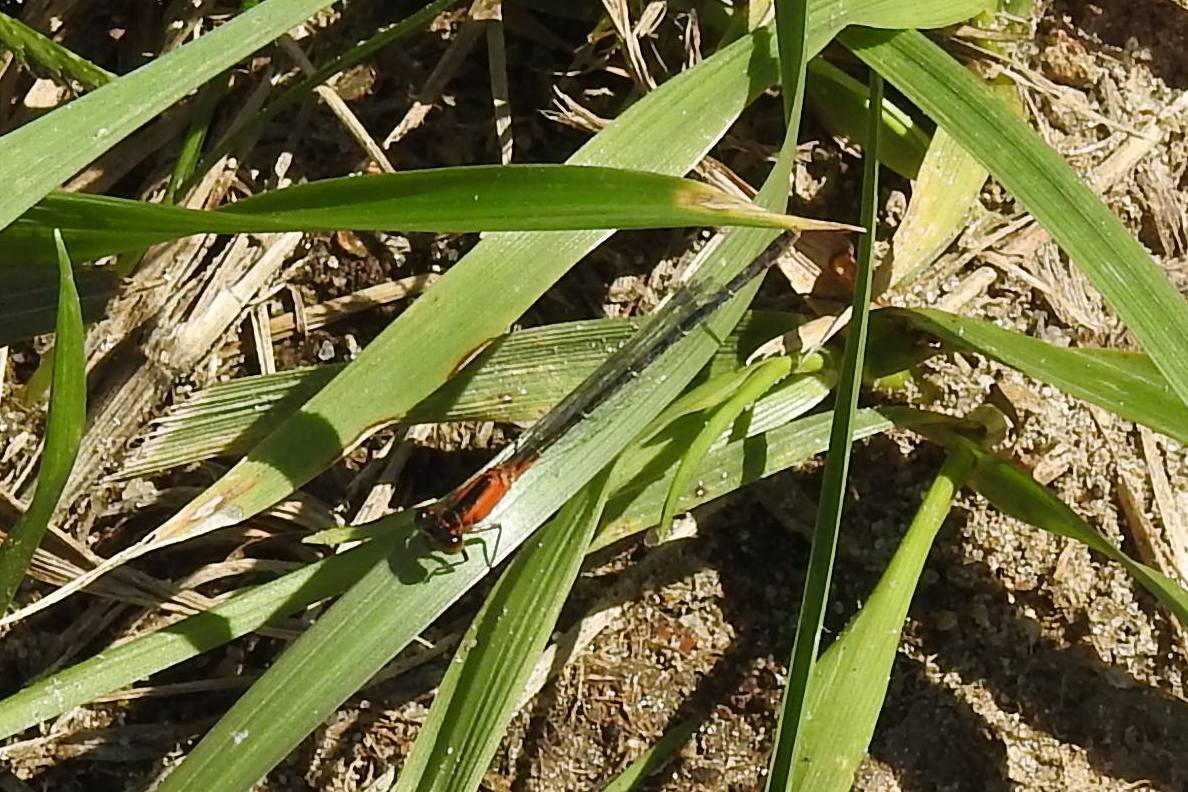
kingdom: Animalia
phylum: Arthropoda
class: Insecta
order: Odonata
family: Coenagrionidae
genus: Ischnura
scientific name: Ischnura ramburii
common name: Rambur's forktail
